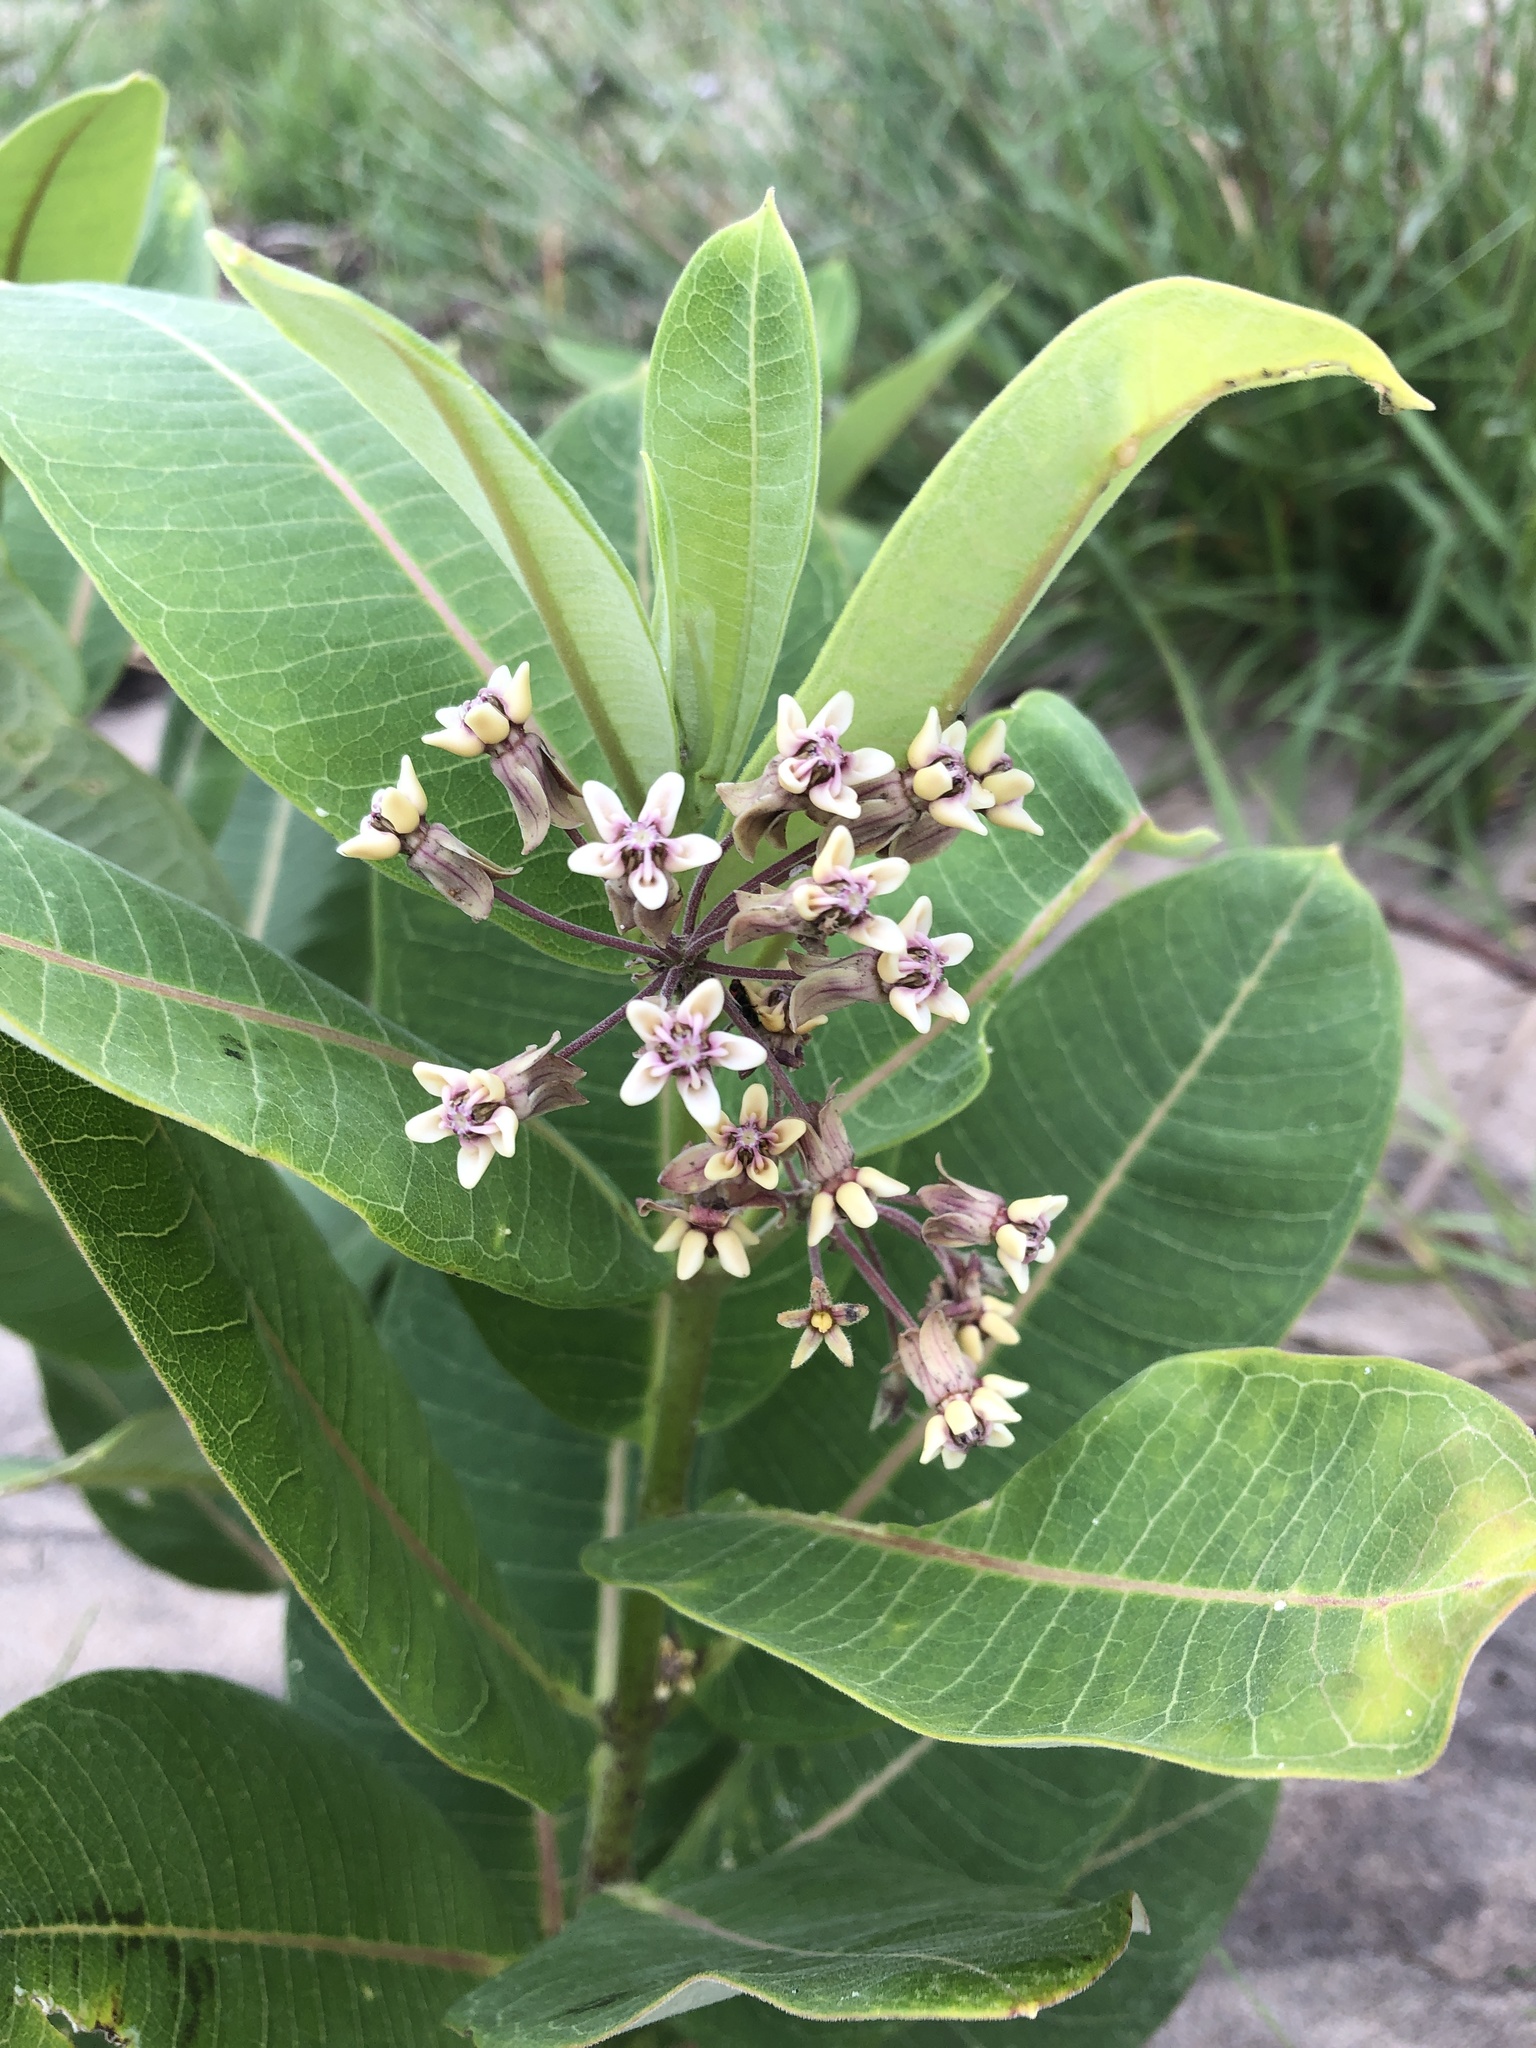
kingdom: Plantae
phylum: Tracheophyta
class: Magnoliopsida
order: Gentianales
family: Apocynaceae
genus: Asclepias
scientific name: Asclepias syriaca
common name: Common milkweed
